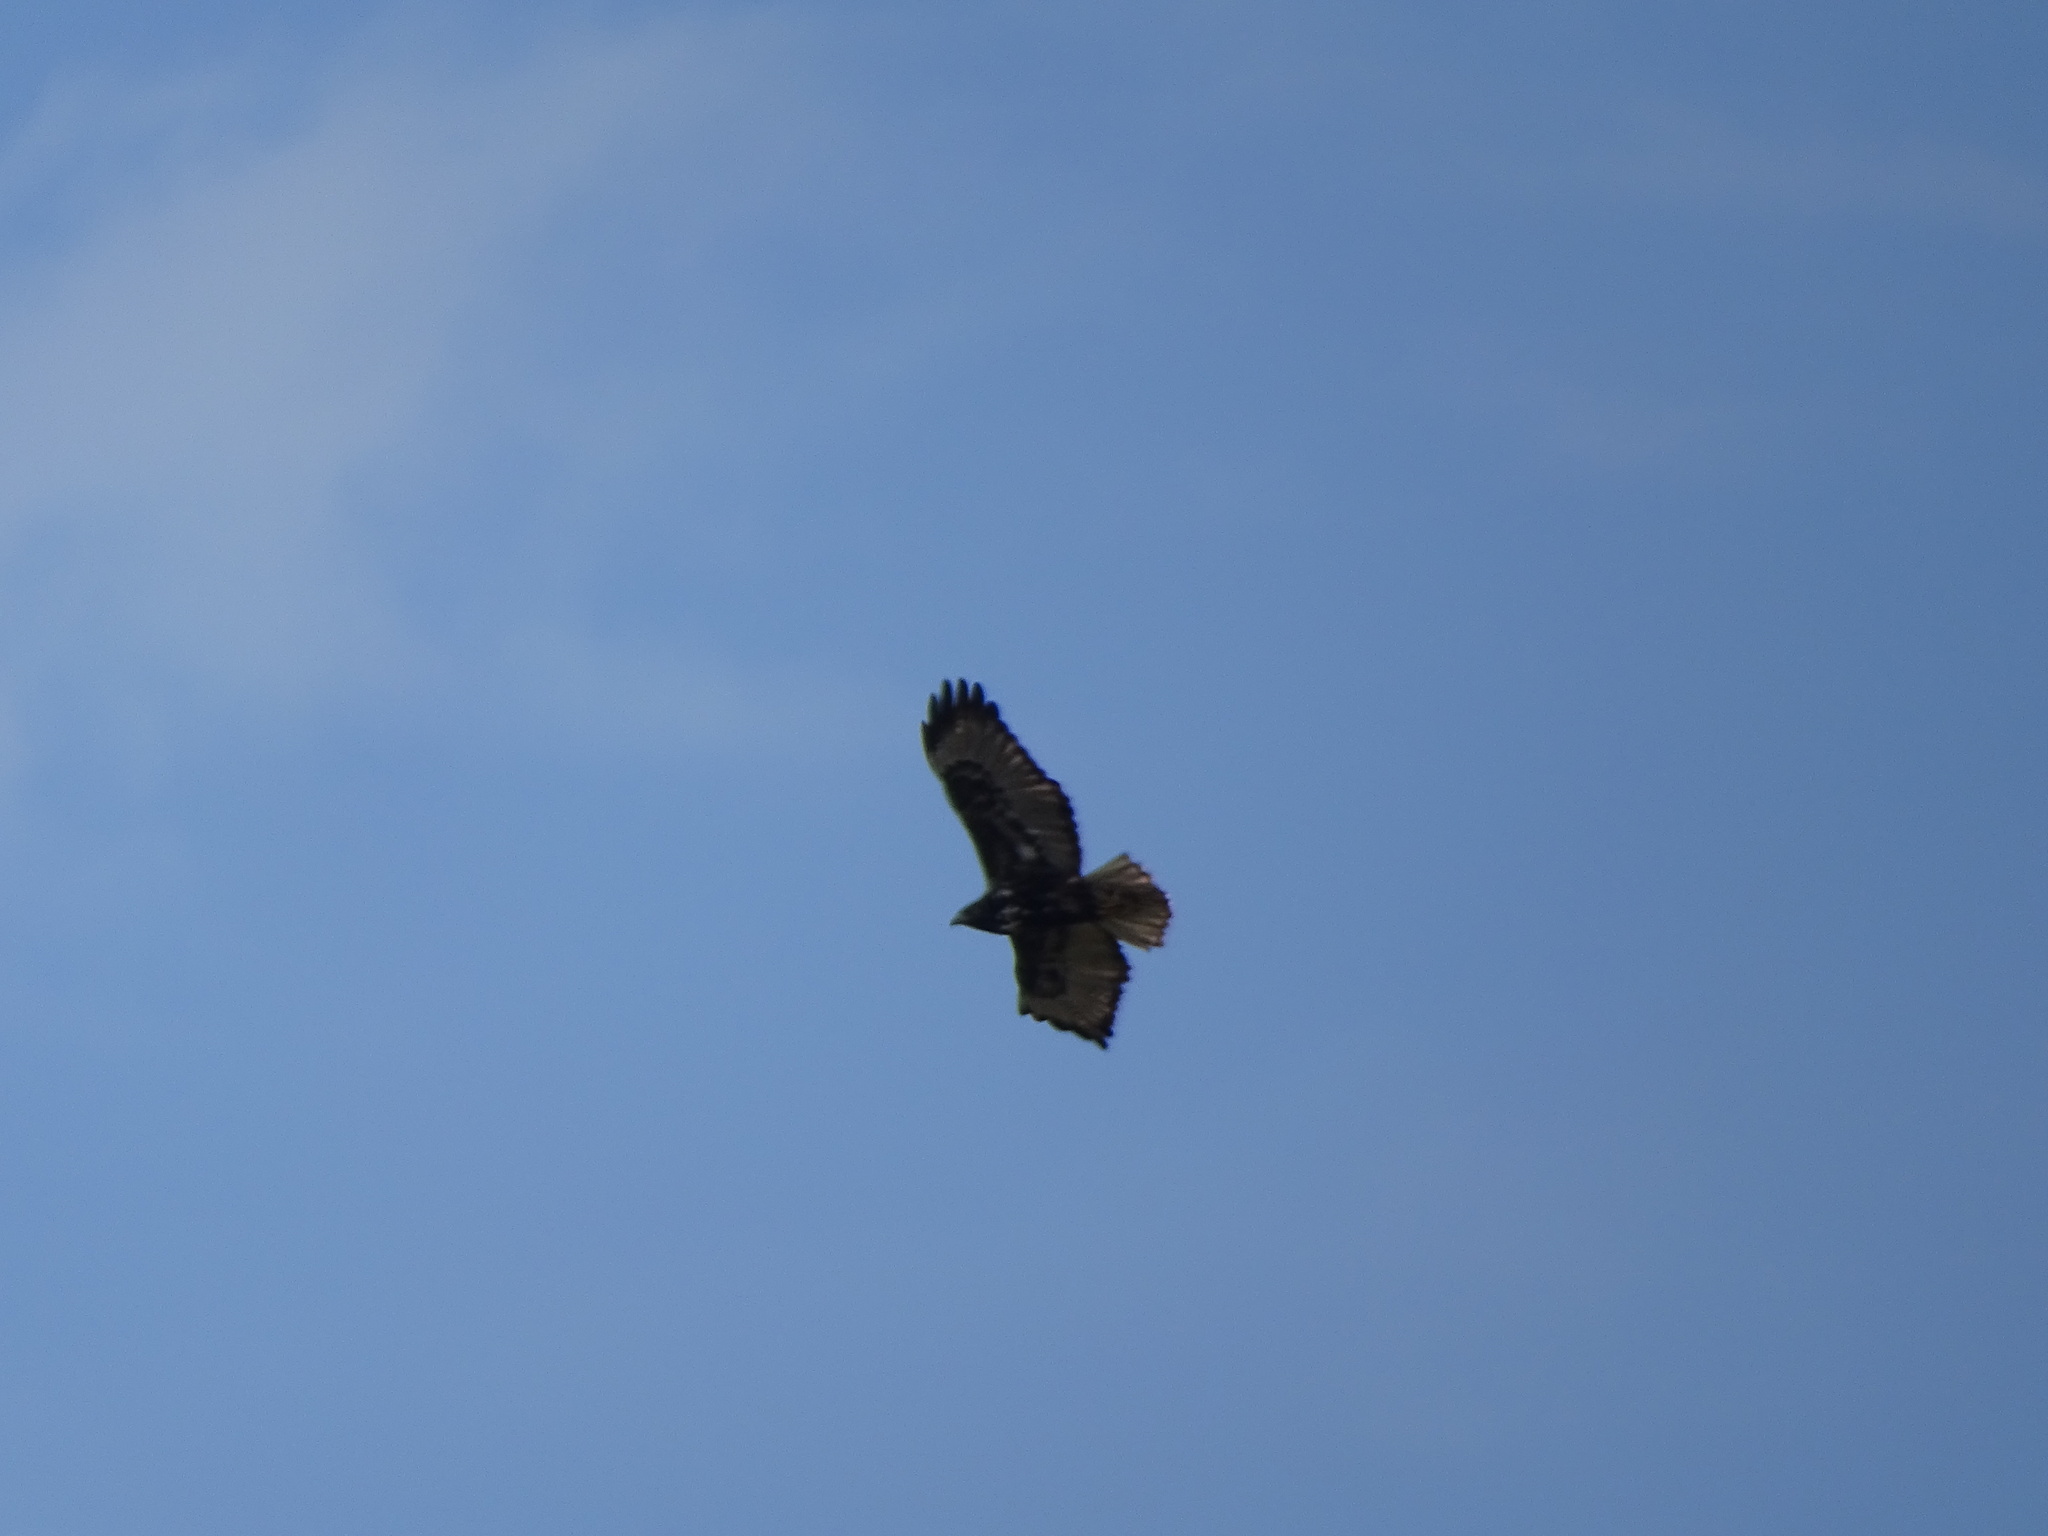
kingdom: Animalia
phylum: Chordata
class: Aves
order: Accipitriformes
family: Accipitridae
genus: Buteo
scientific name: Buteo jamaicensis
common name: Red-tailed hawk
